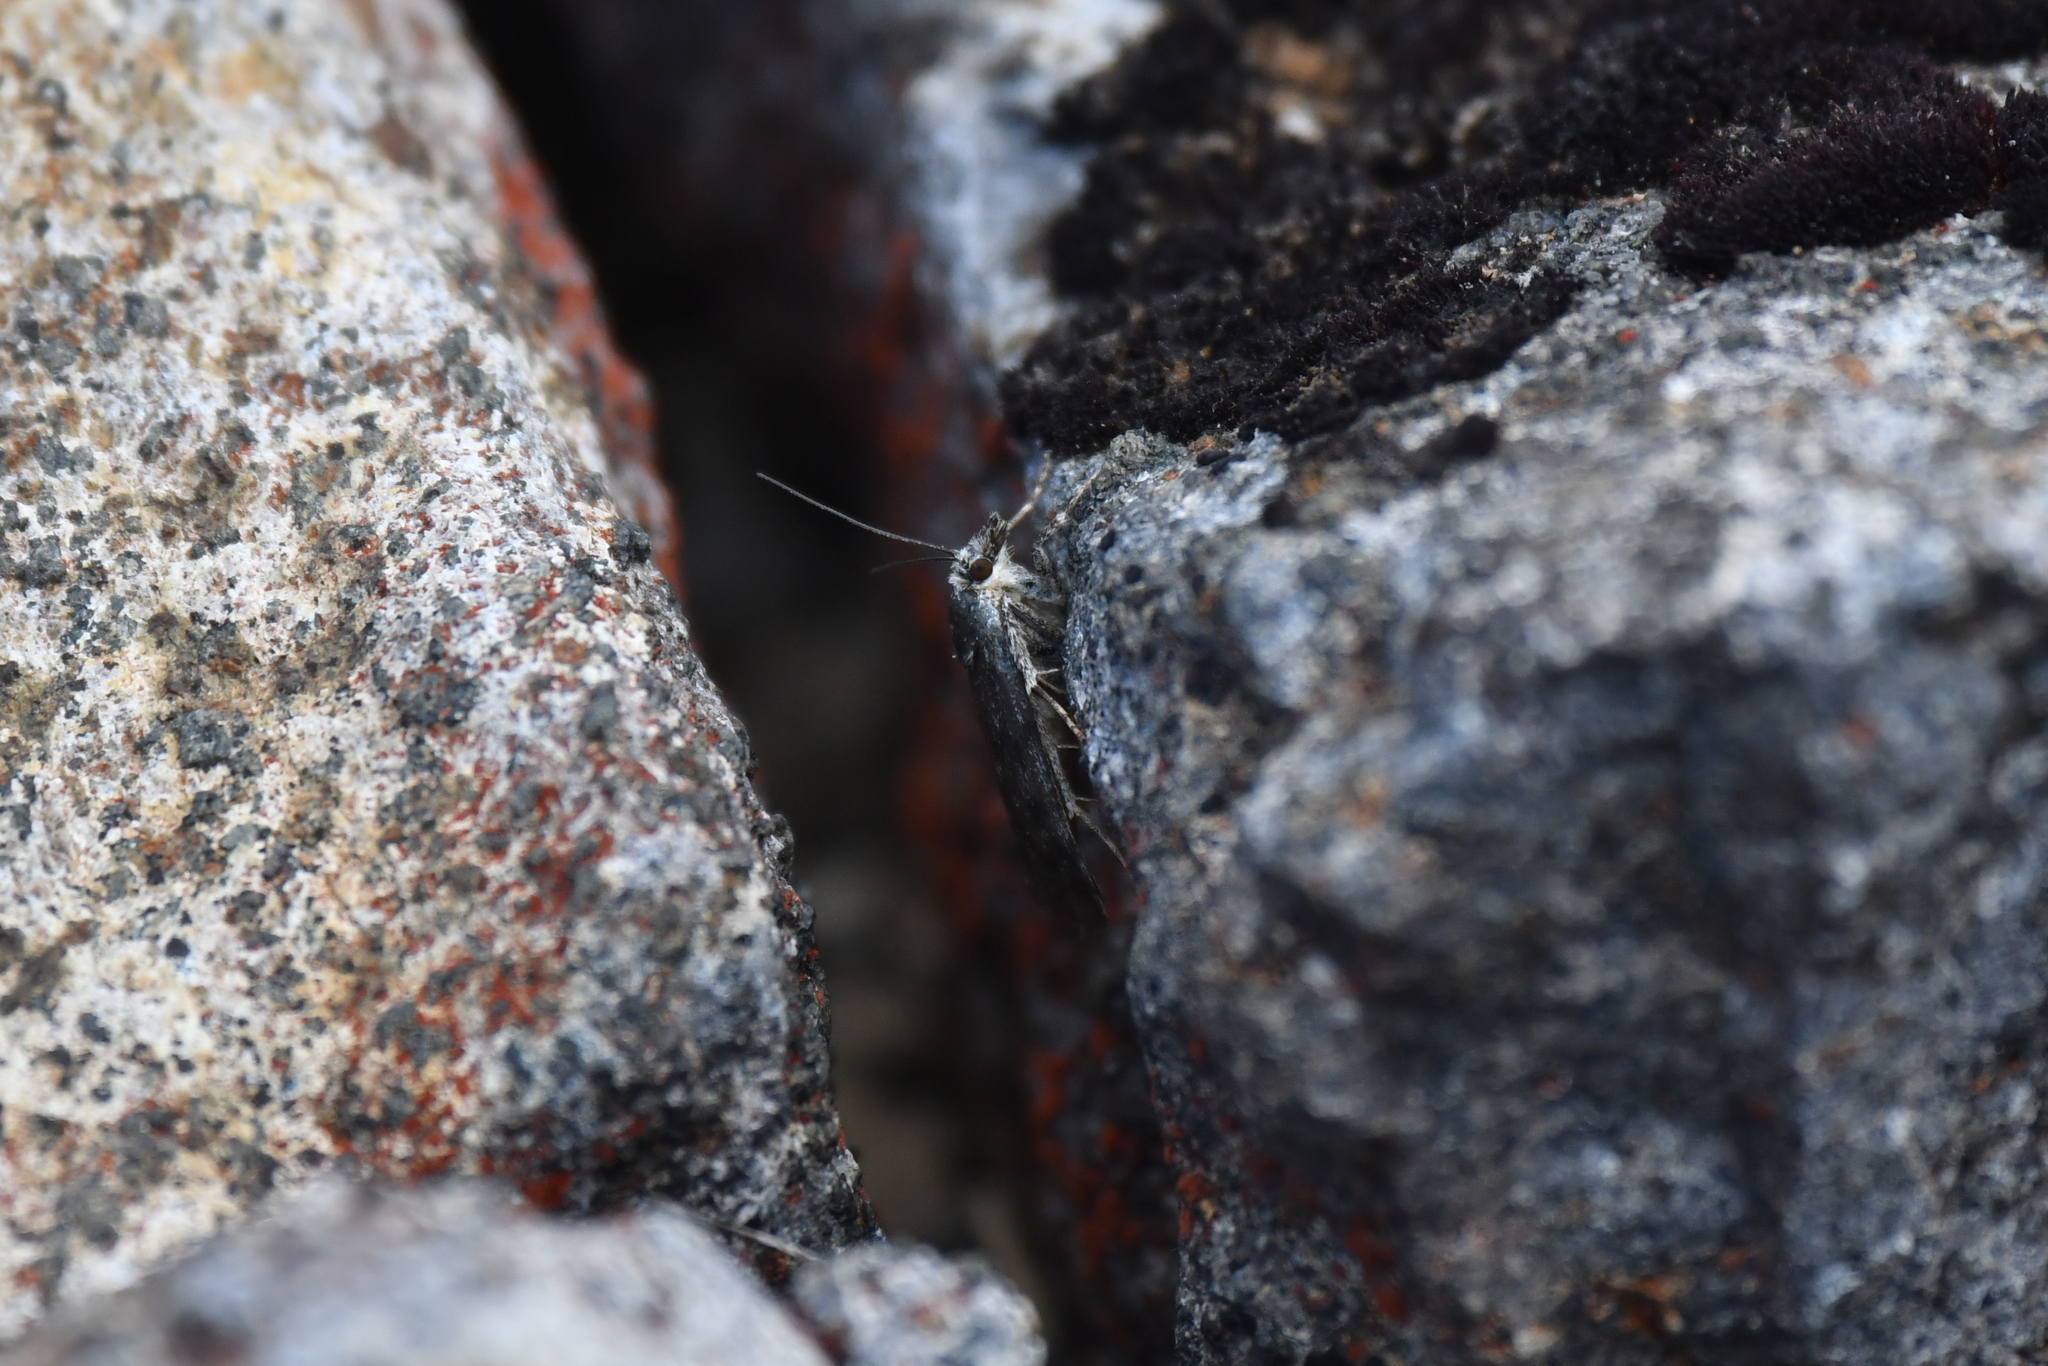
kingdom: Animalia
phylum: Arthropoda
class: Insecta
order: Lepidoptera
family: Crambidae
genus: Tawhitia
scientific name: Tawhitia glaucophanes
